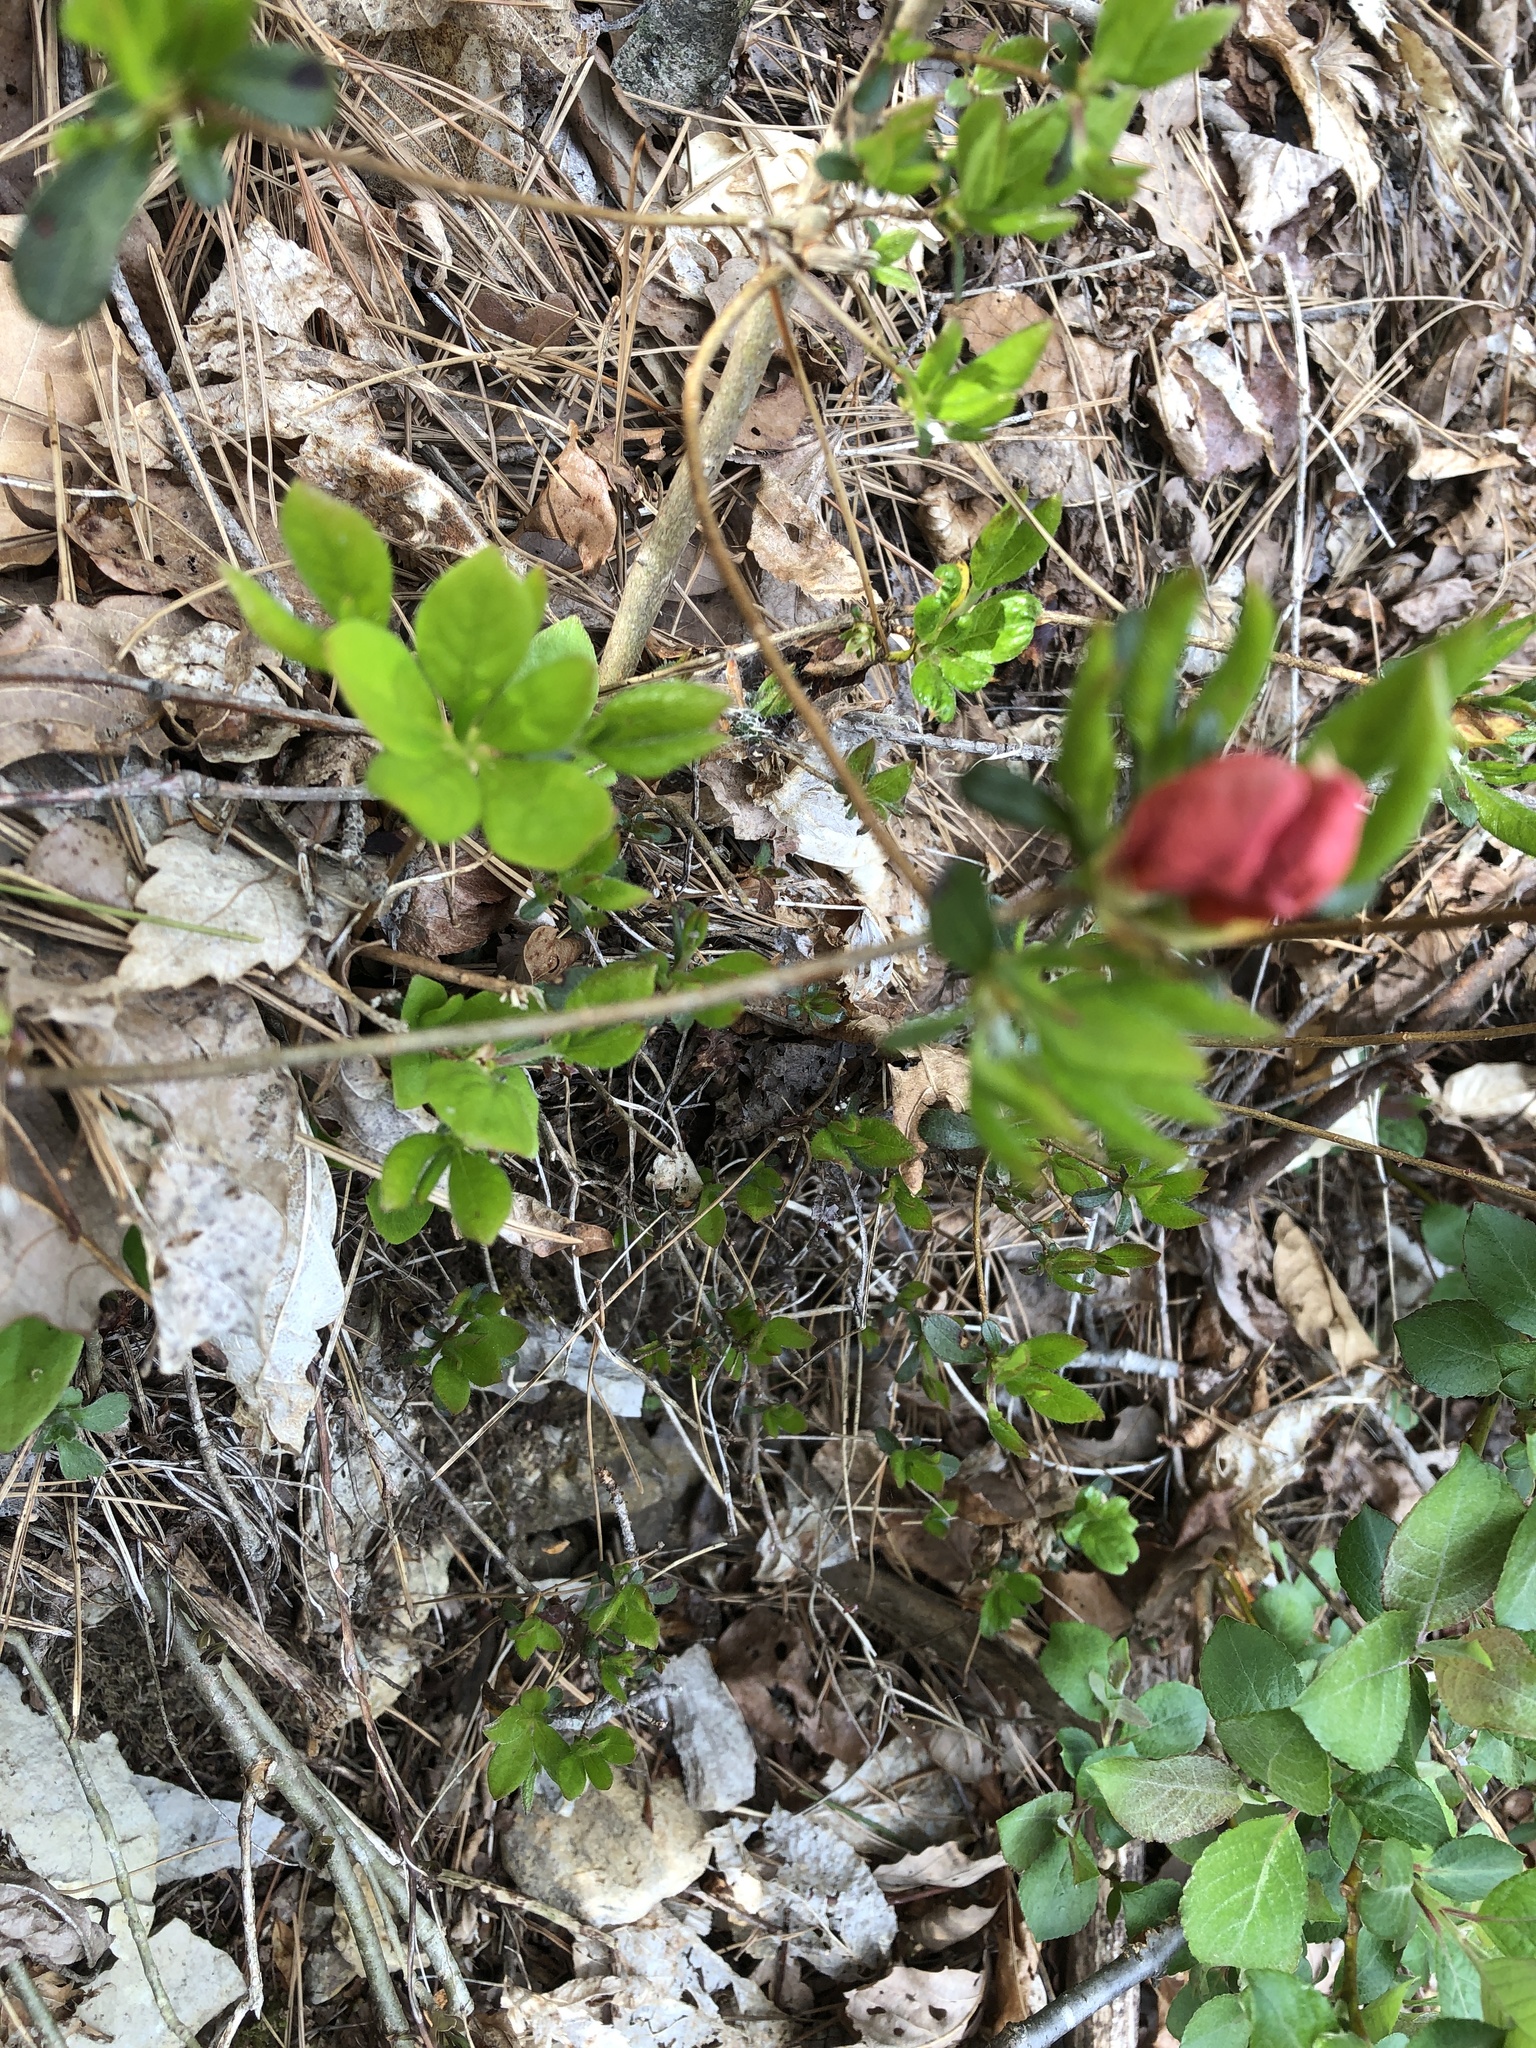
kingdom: Plantae
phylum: Tracheophyta
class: Magnoliopsida
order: Ericales
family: Ericaceae
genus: Rhododendron
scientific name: Rhododendron kaempferi
